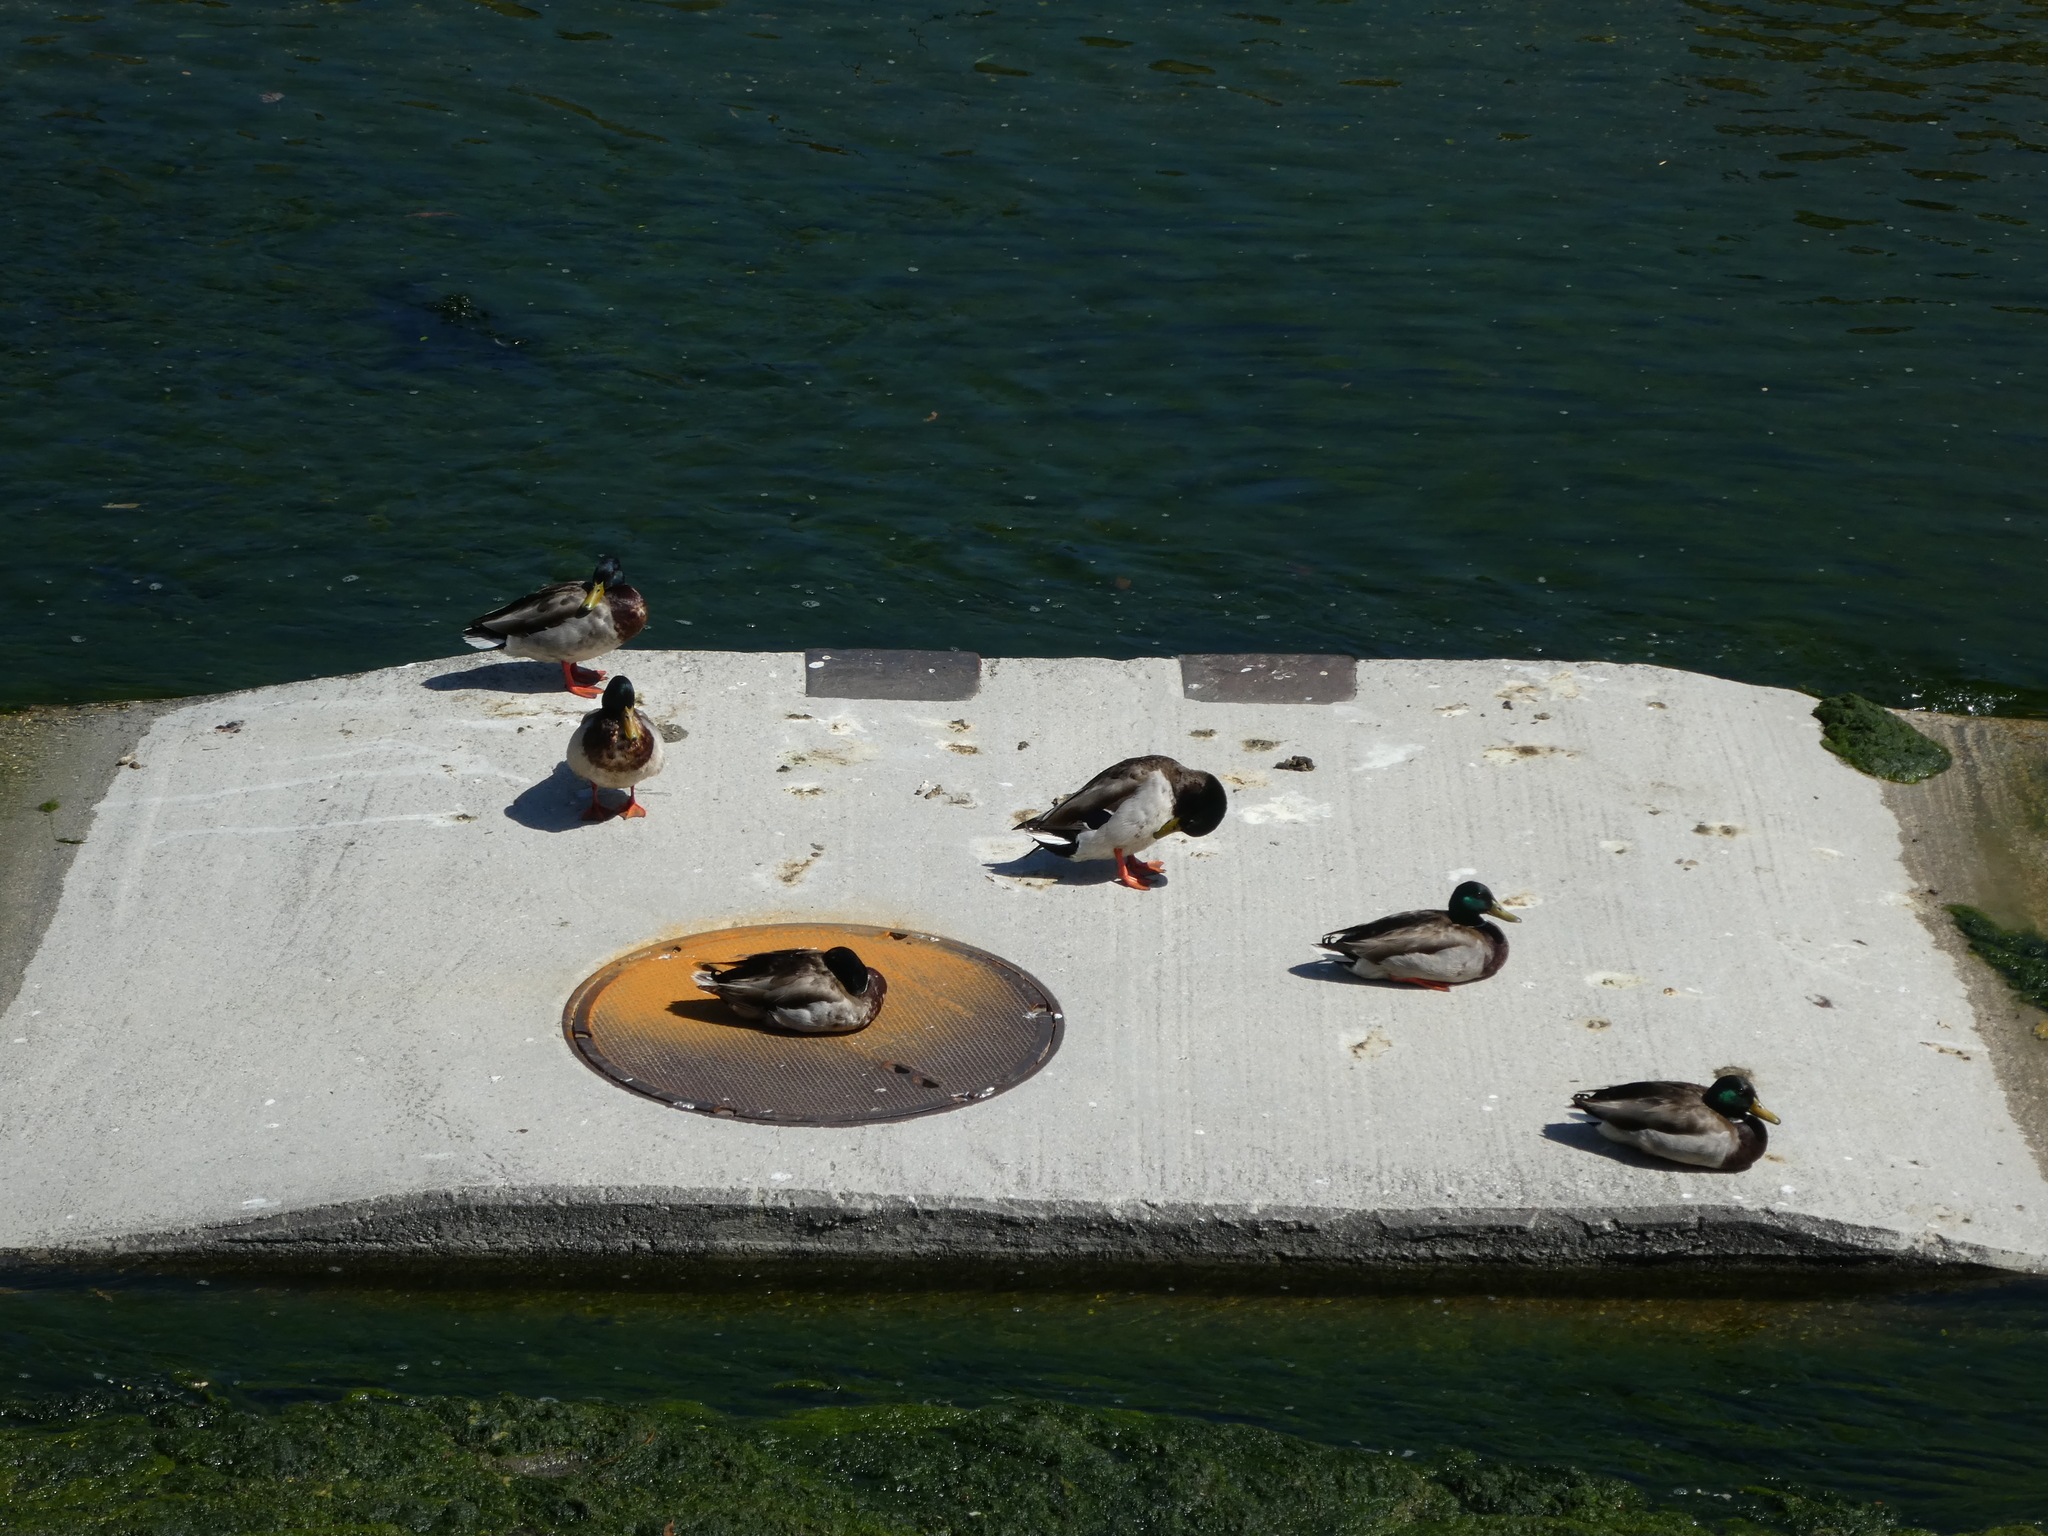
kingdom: Animalia
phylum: Chordata
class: Aves
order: Anseriformes
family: Anatidae
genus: Anas
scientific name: Anas platyrhynchos
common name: Mallard
